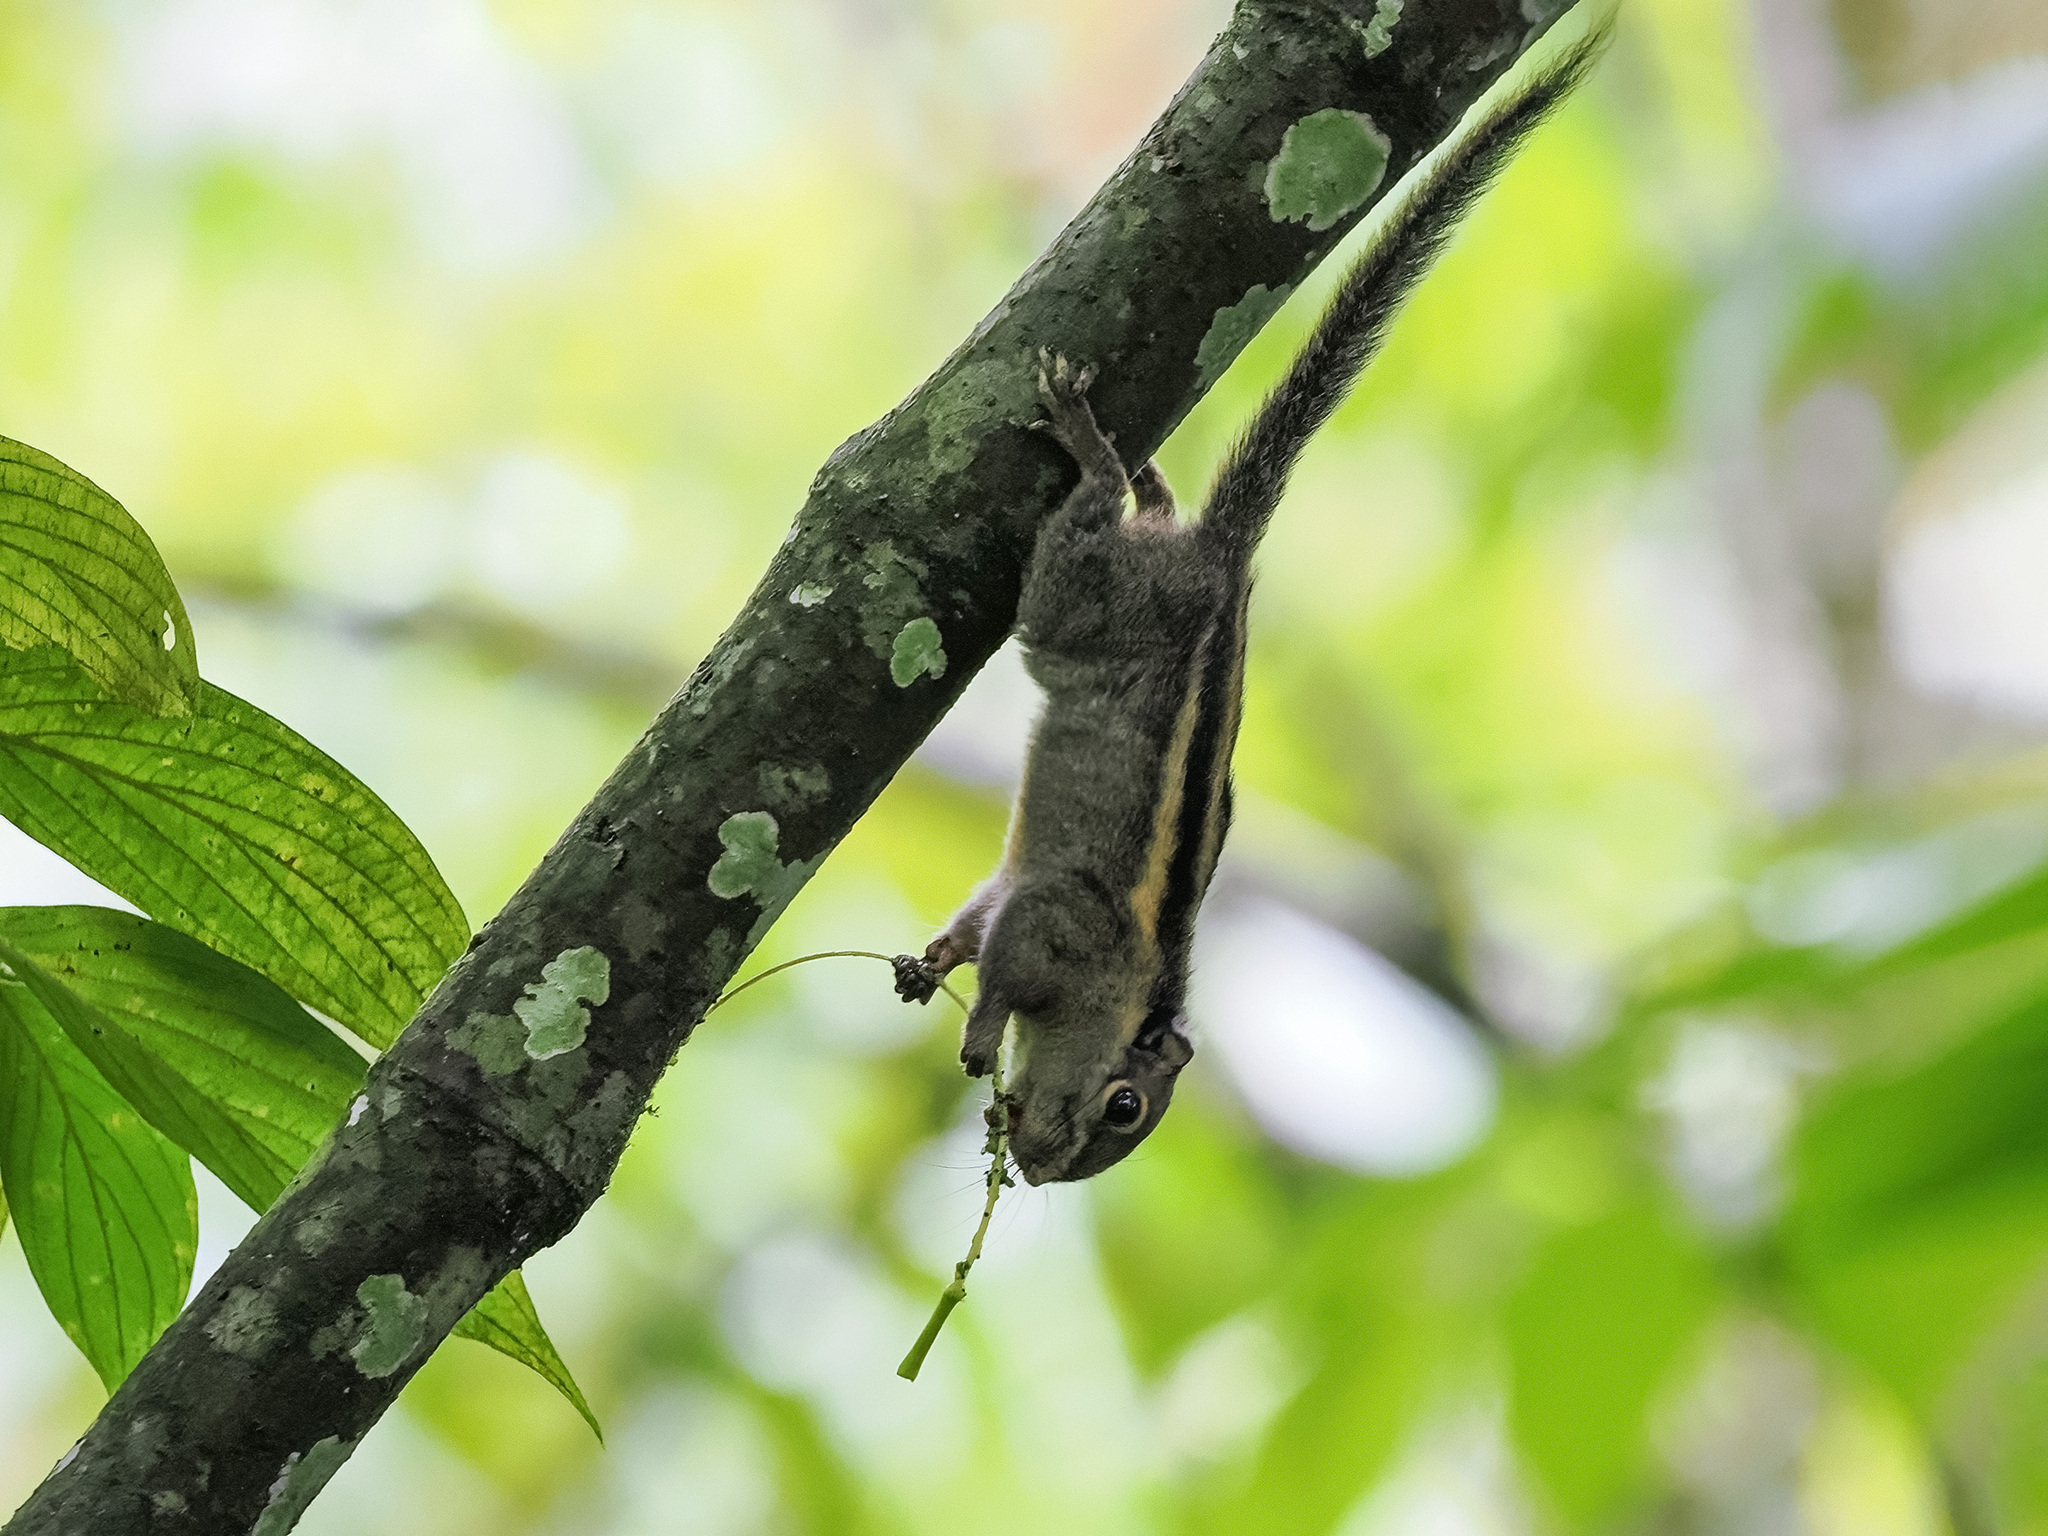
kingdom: Animalia
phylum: Chordata
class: Mammalia
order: Rodentia
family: Sciuridae
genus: Tamiops
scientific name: Tamiops mcclellandii
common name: Himalayan striped squirrel
